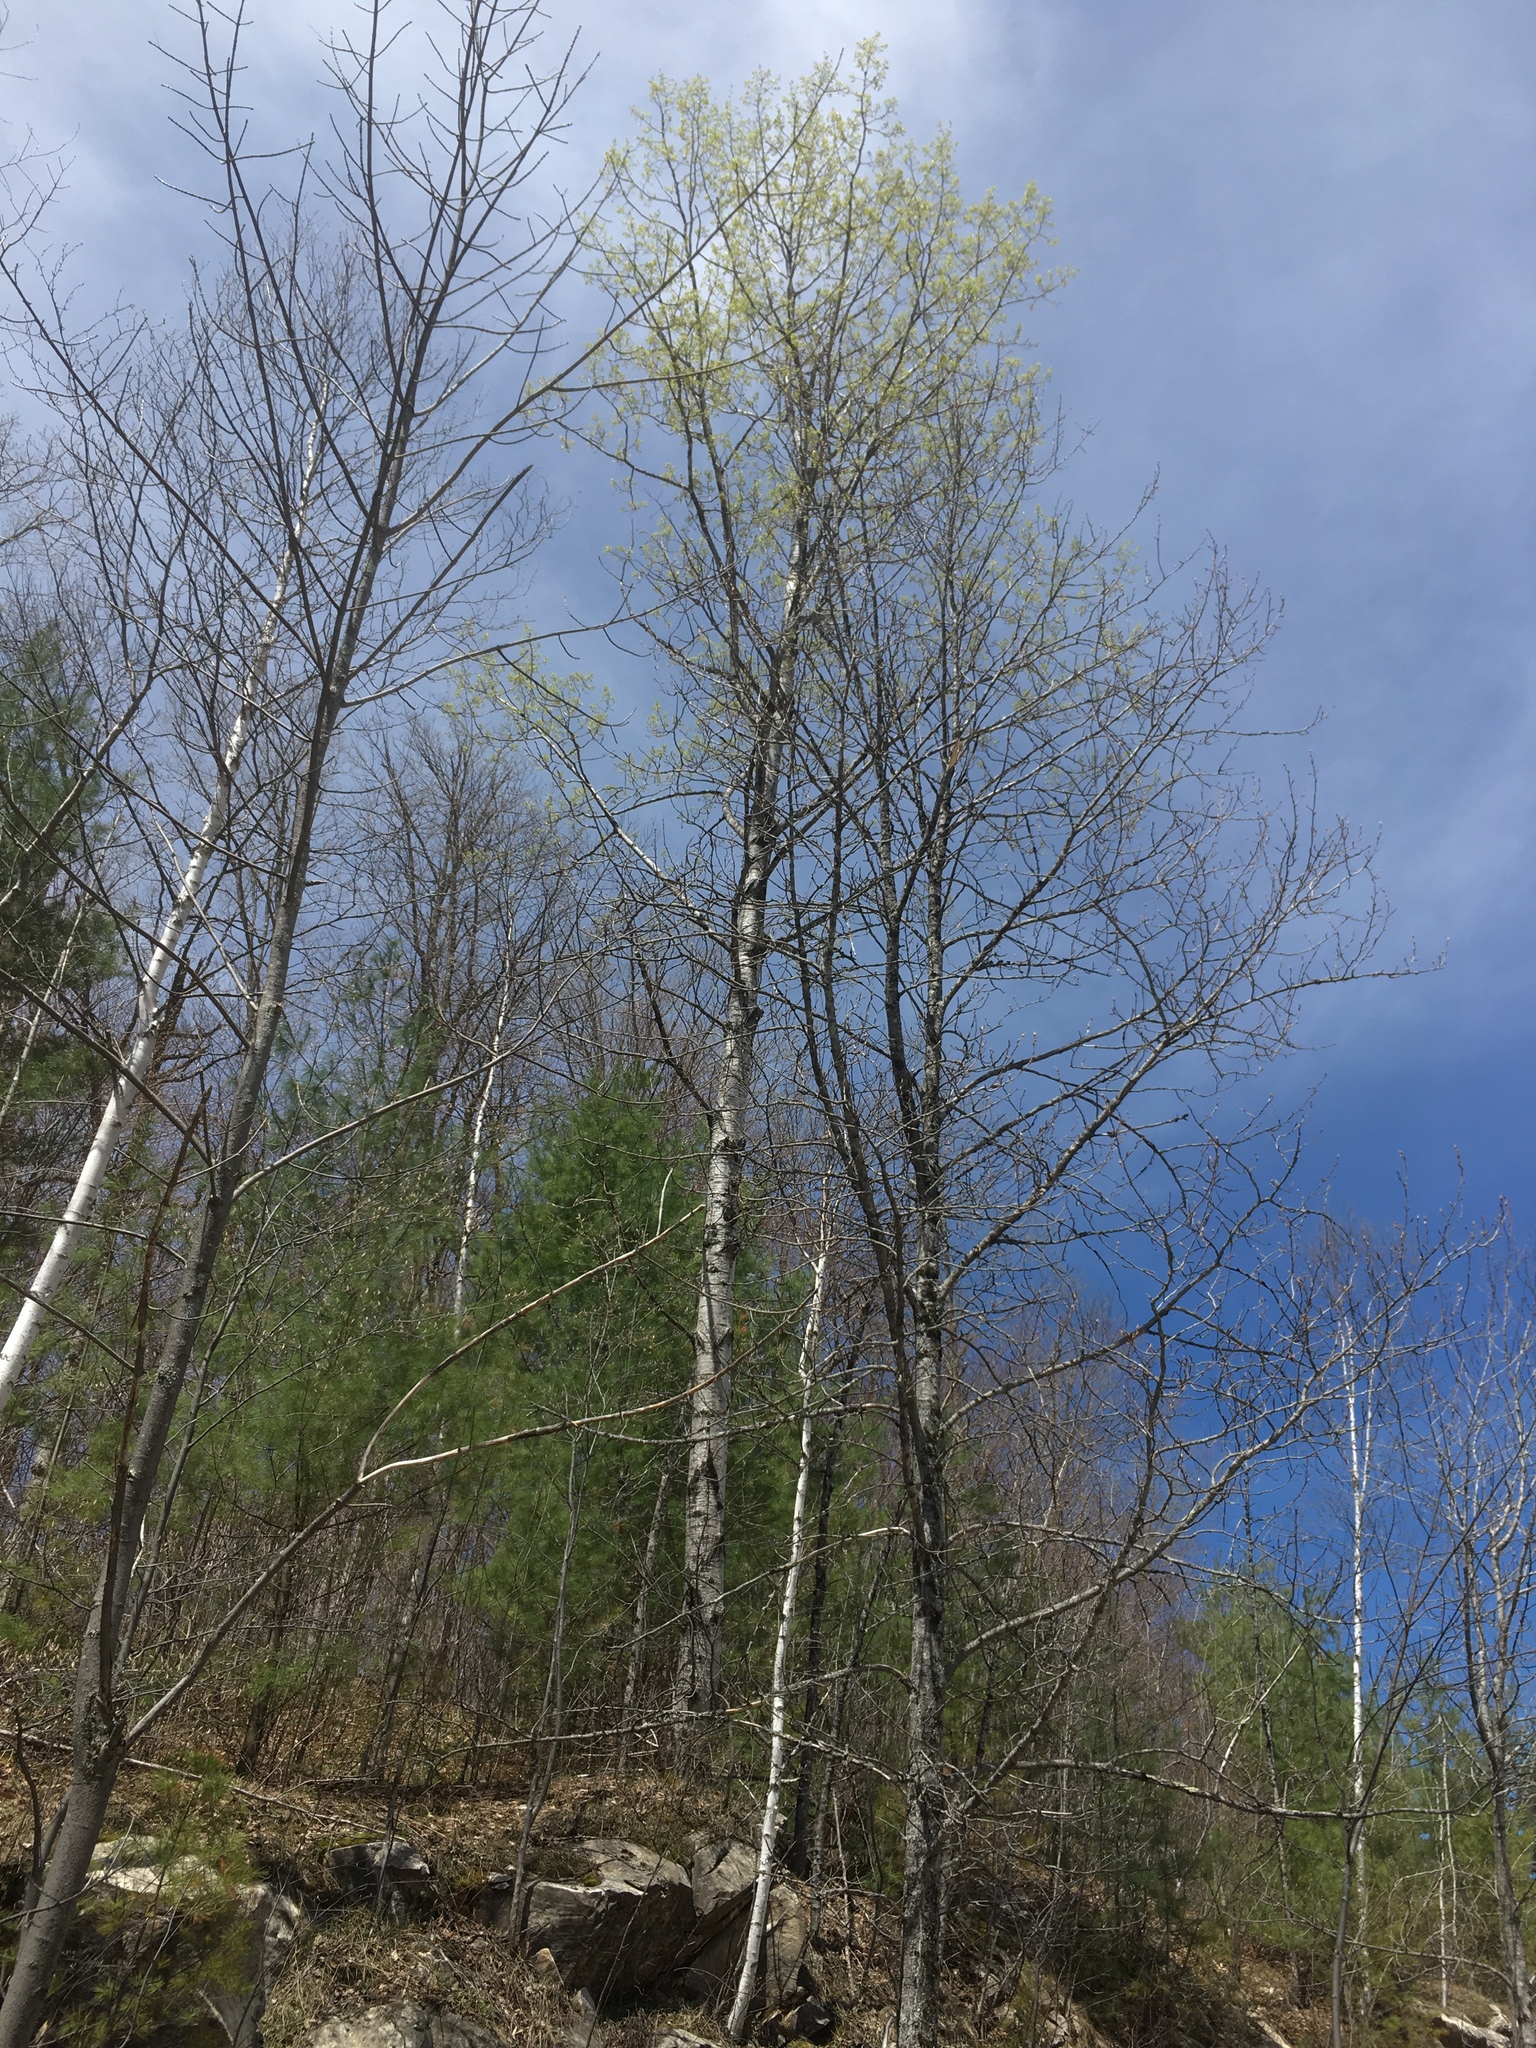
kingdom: Plantae
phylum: Tracheophyta
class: Magnoliopsida
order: Malpighiales
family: Salicaceae
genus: Populus
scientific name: Populus tremuloides
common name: Quaking aspen
